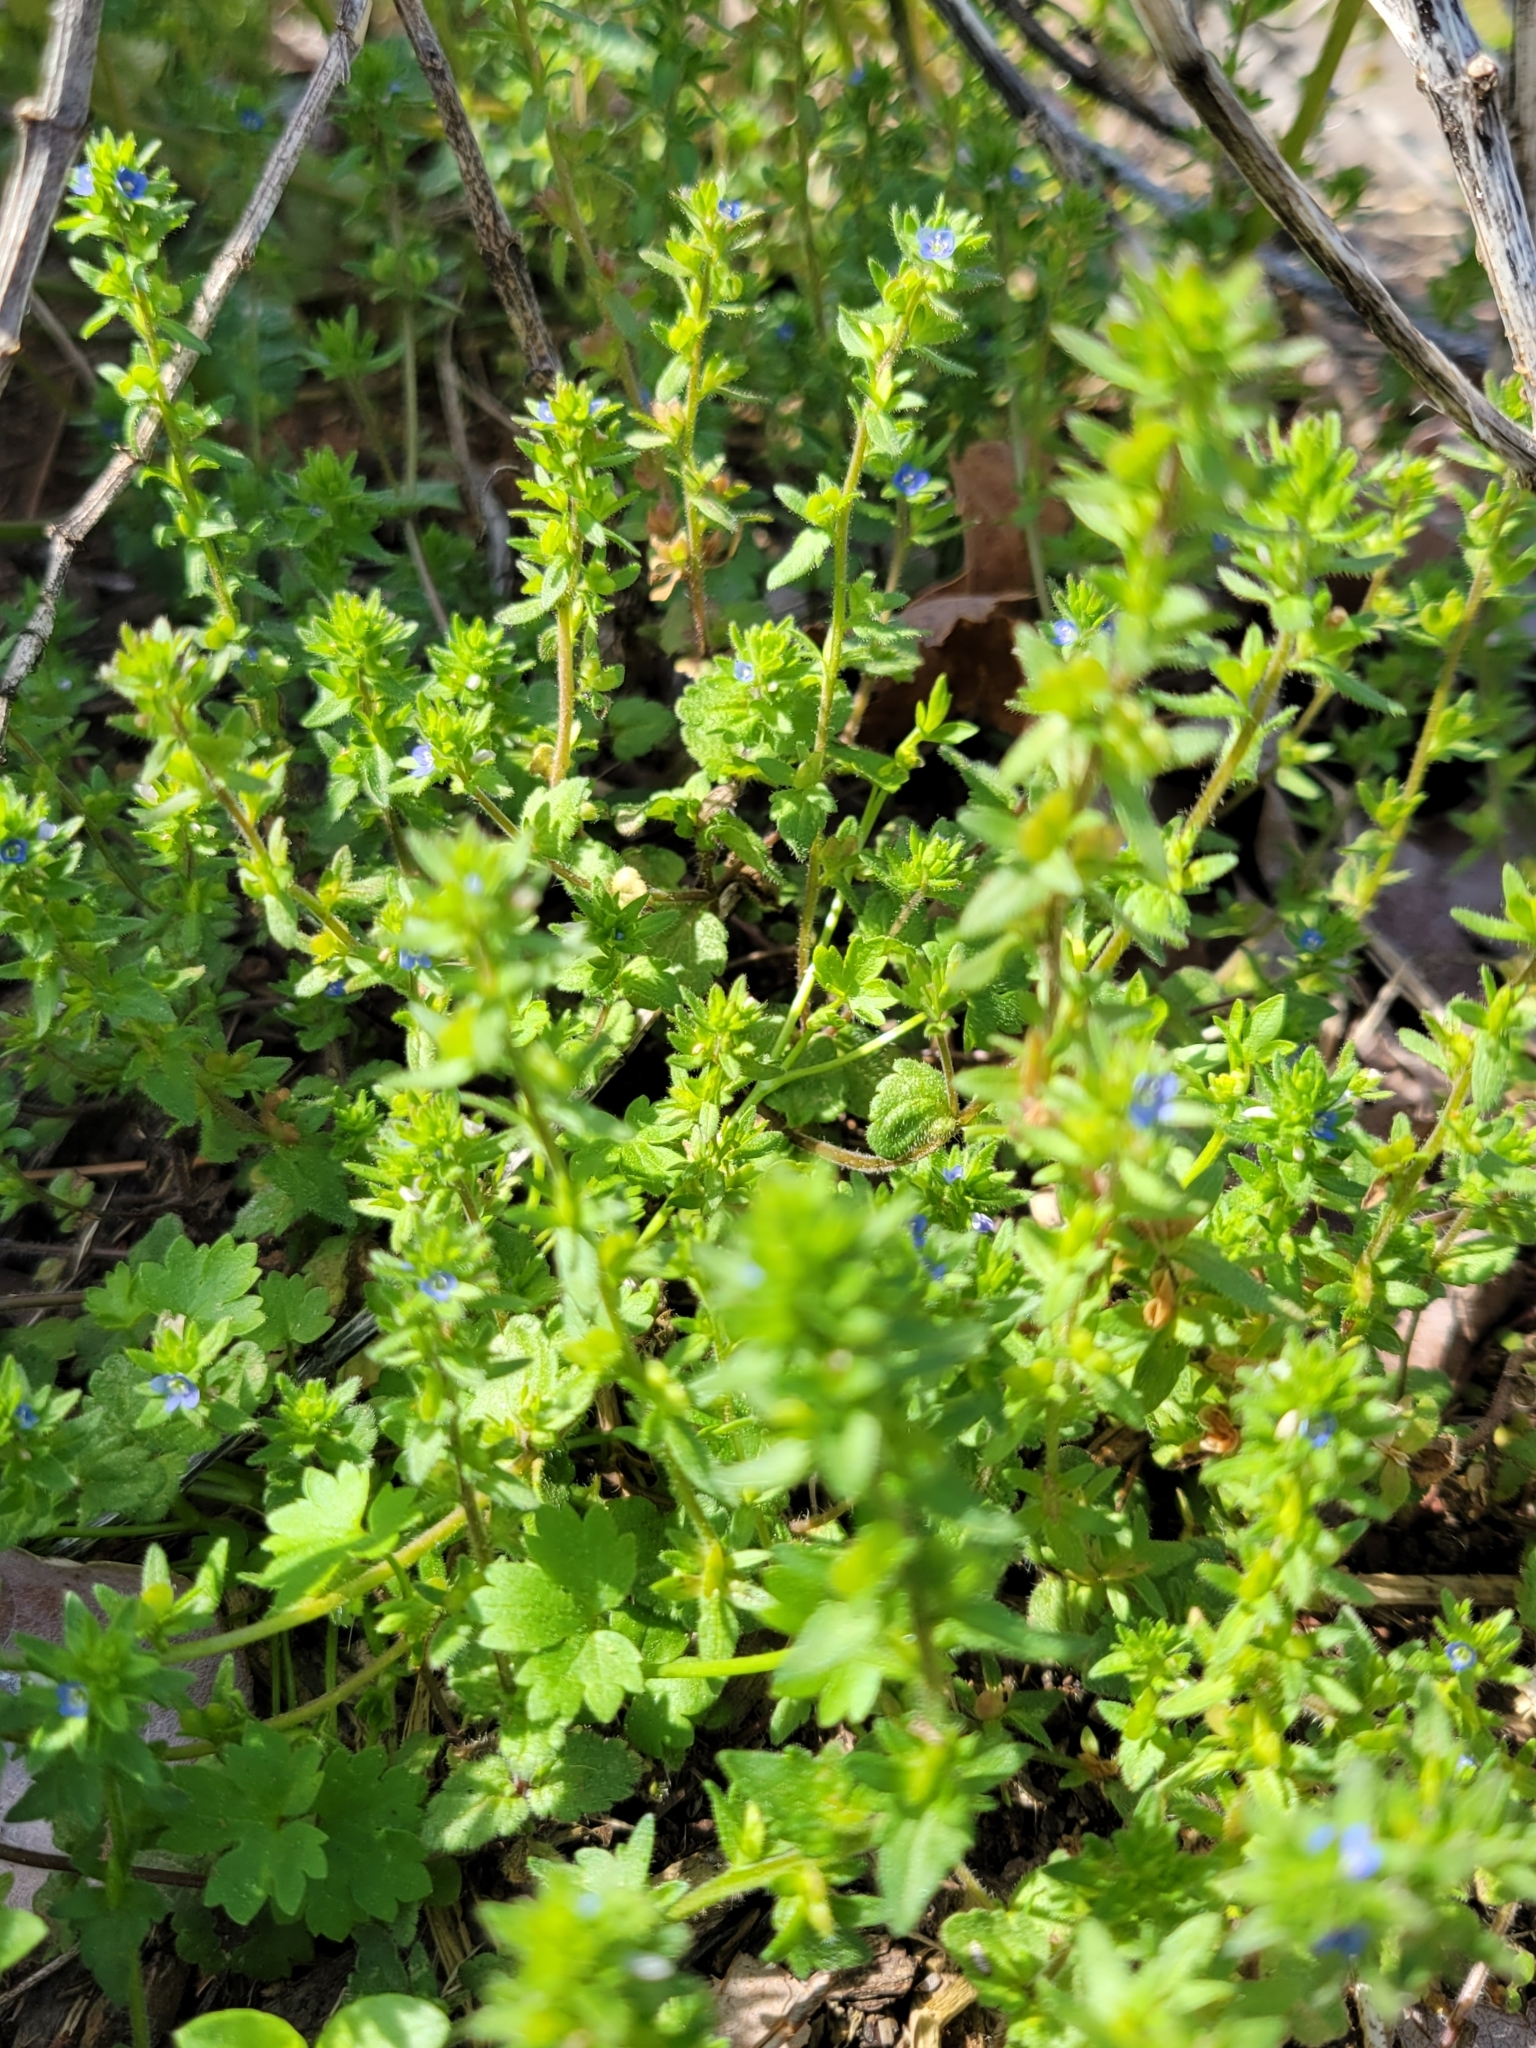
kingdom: Plantae
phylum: Tracheophyta
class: Magnoliopsida
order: Lamiales
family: Plantaginaceae
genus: Veronica
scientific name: Veronica arvensis
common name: Corn speedwell
